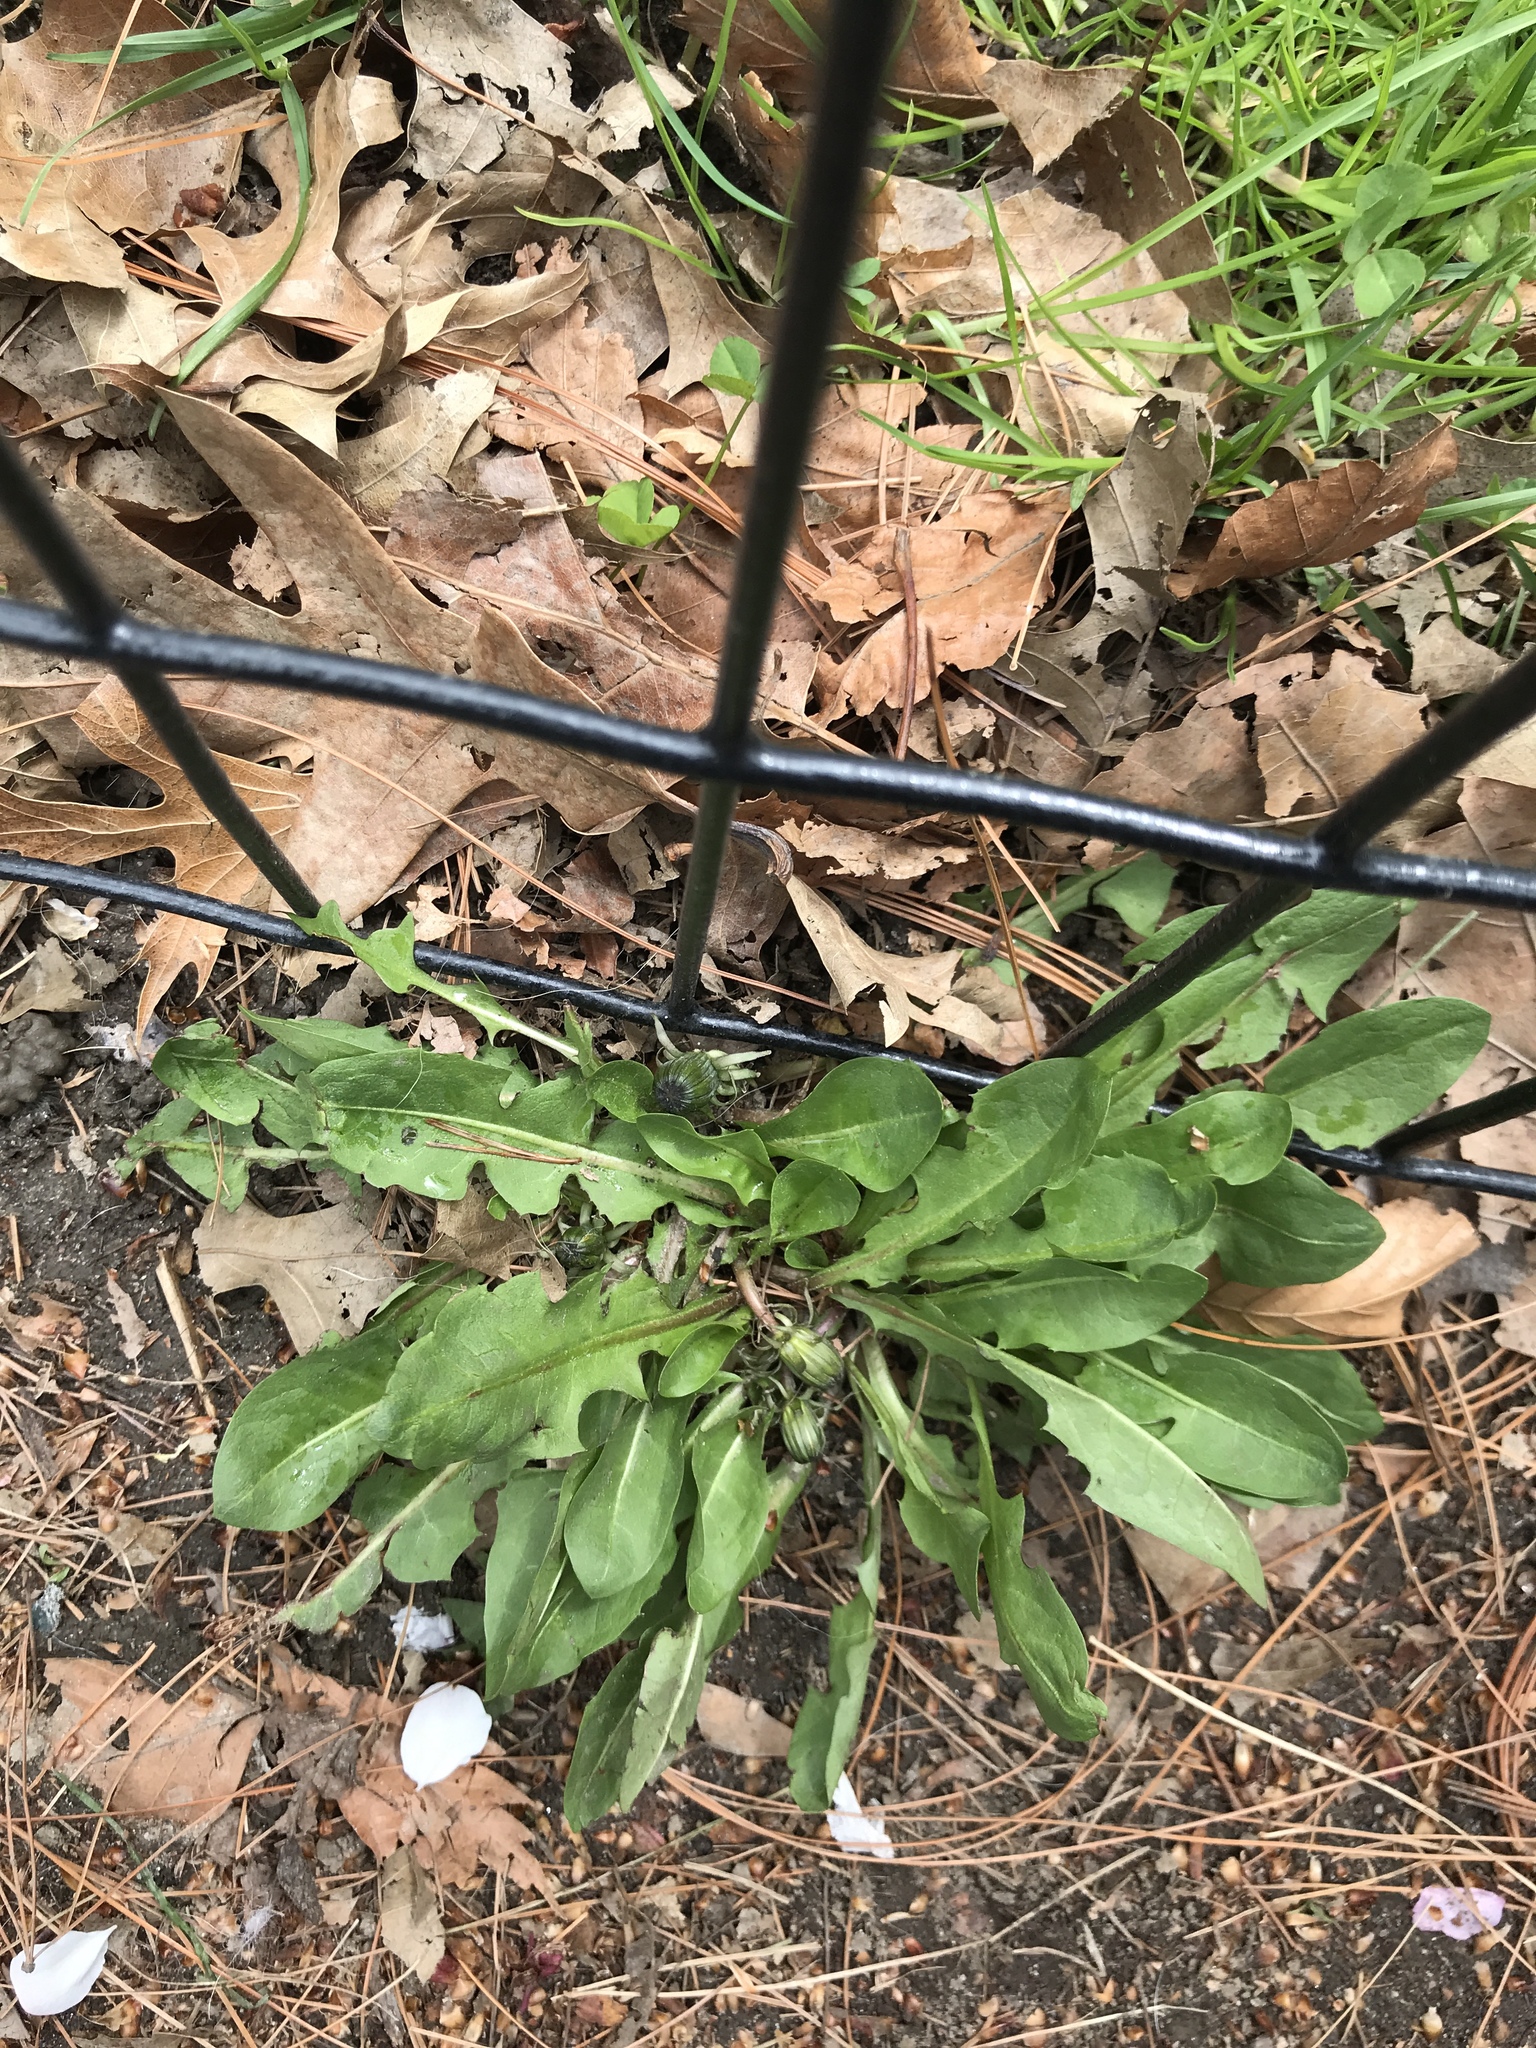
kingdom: Plantae
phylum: Tracheophyta
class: Magnoliopsida
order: Asterales
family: Asteraceae
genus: Taraxacum
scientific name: Taraxacum officinale
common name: Common dandelion
